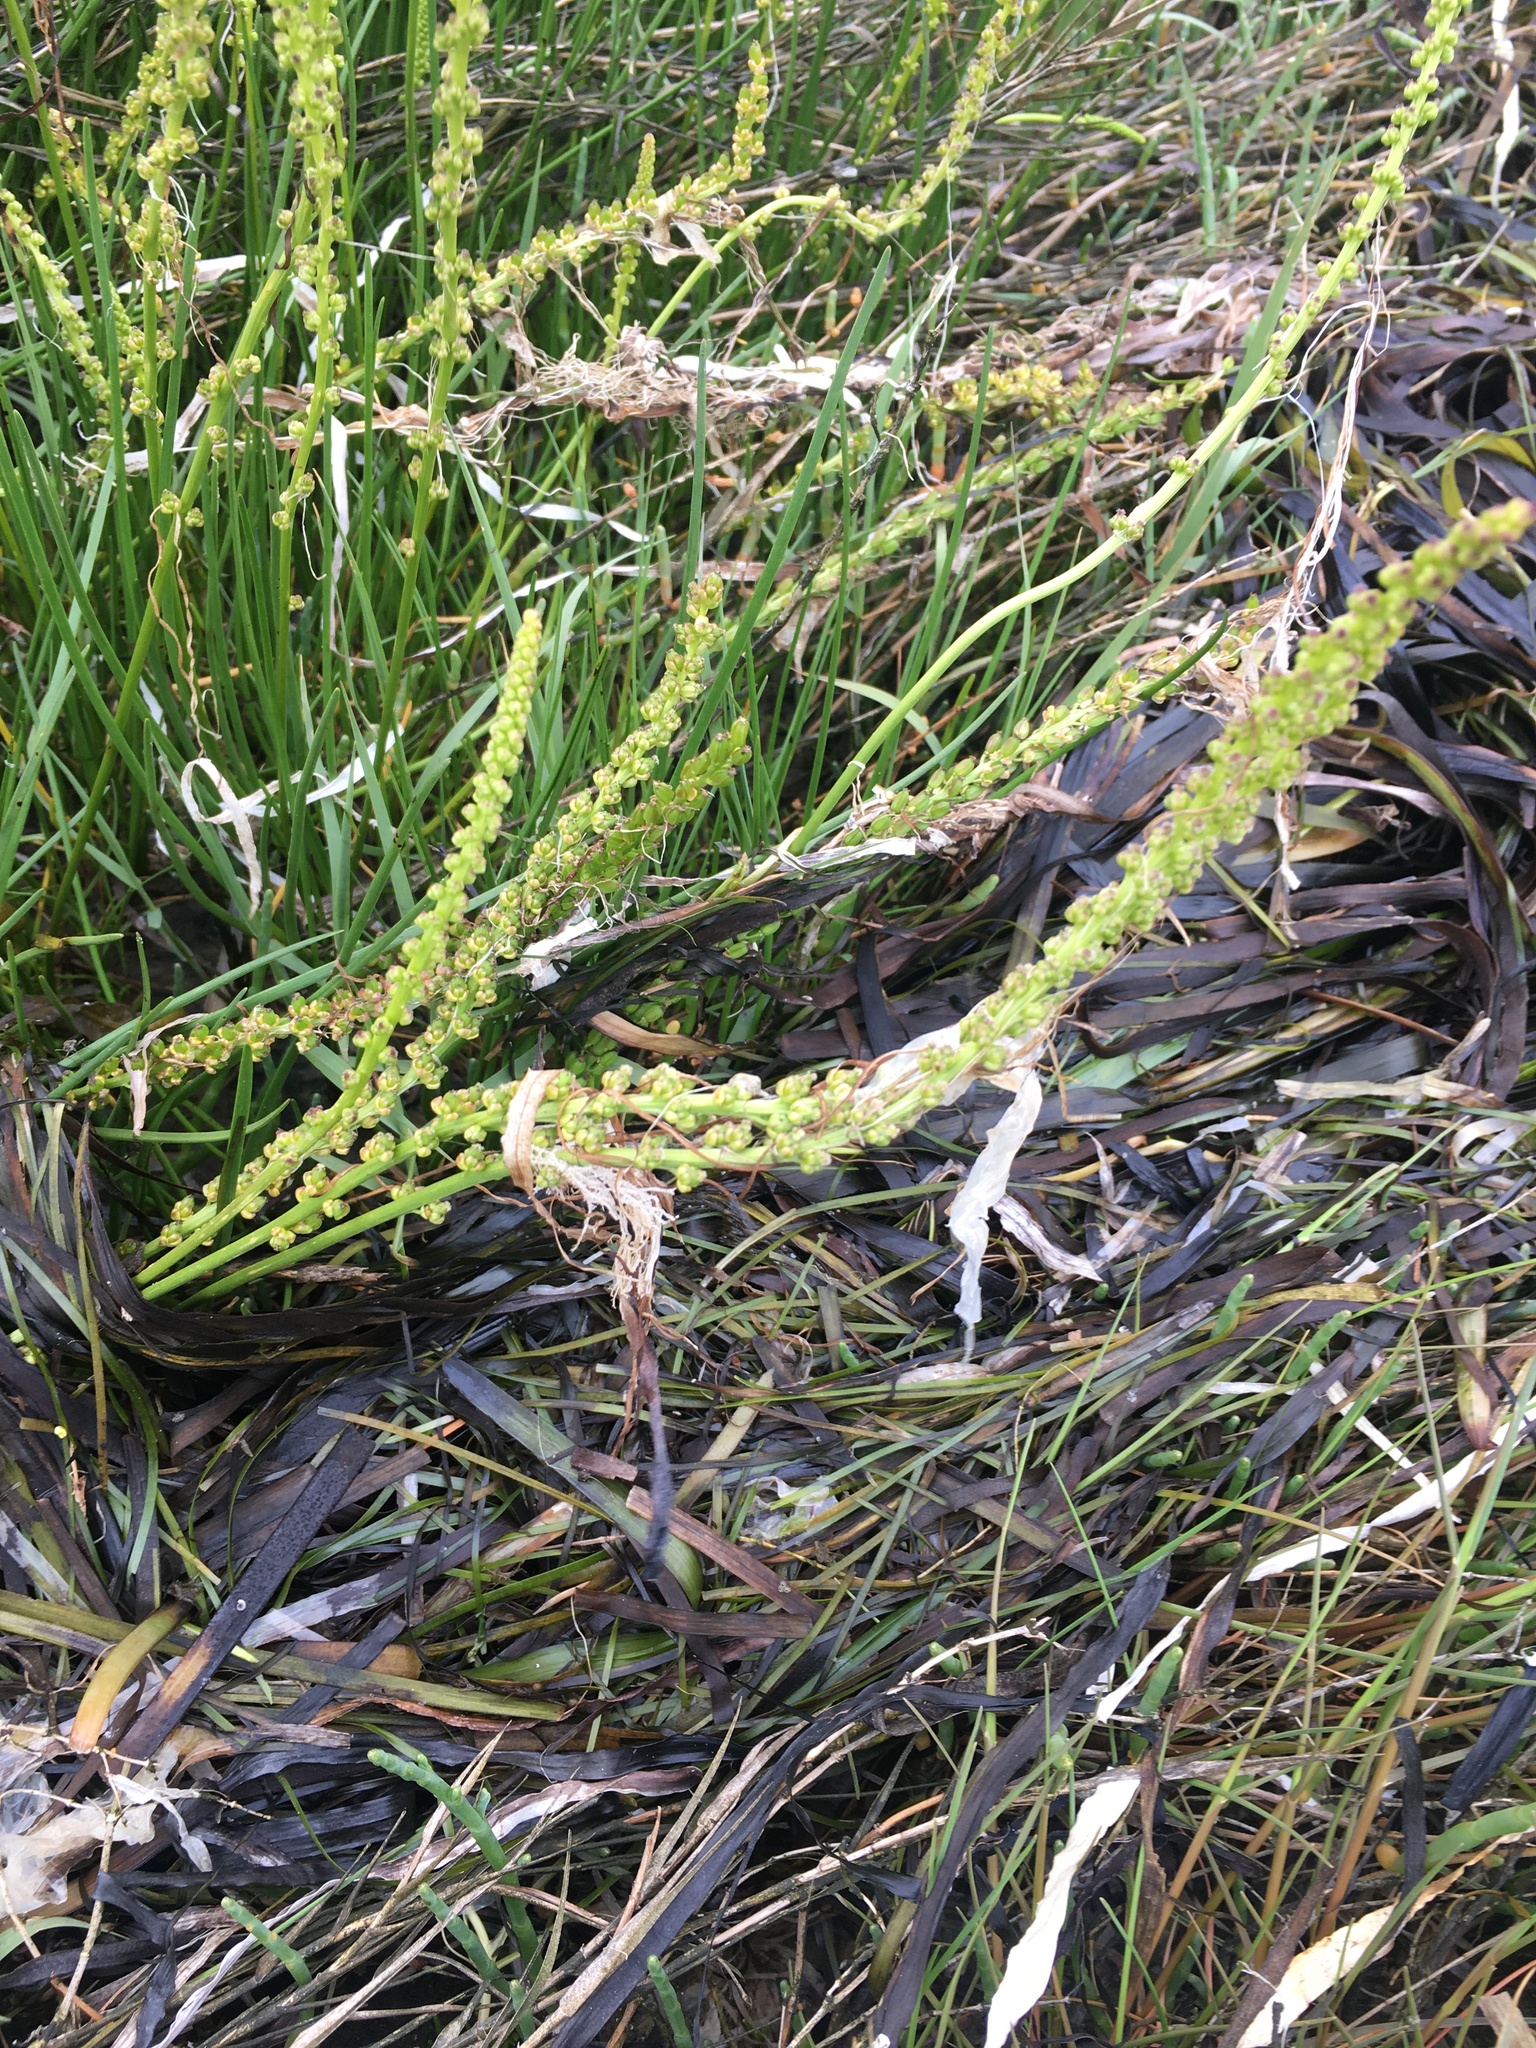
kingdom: Plantae
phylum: Tracheophyta
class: Liliopsida
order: Alismatales
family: Juncaginaceae
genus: Triglochin
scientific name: Triglochin maritima
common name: Sea arrowgrass
